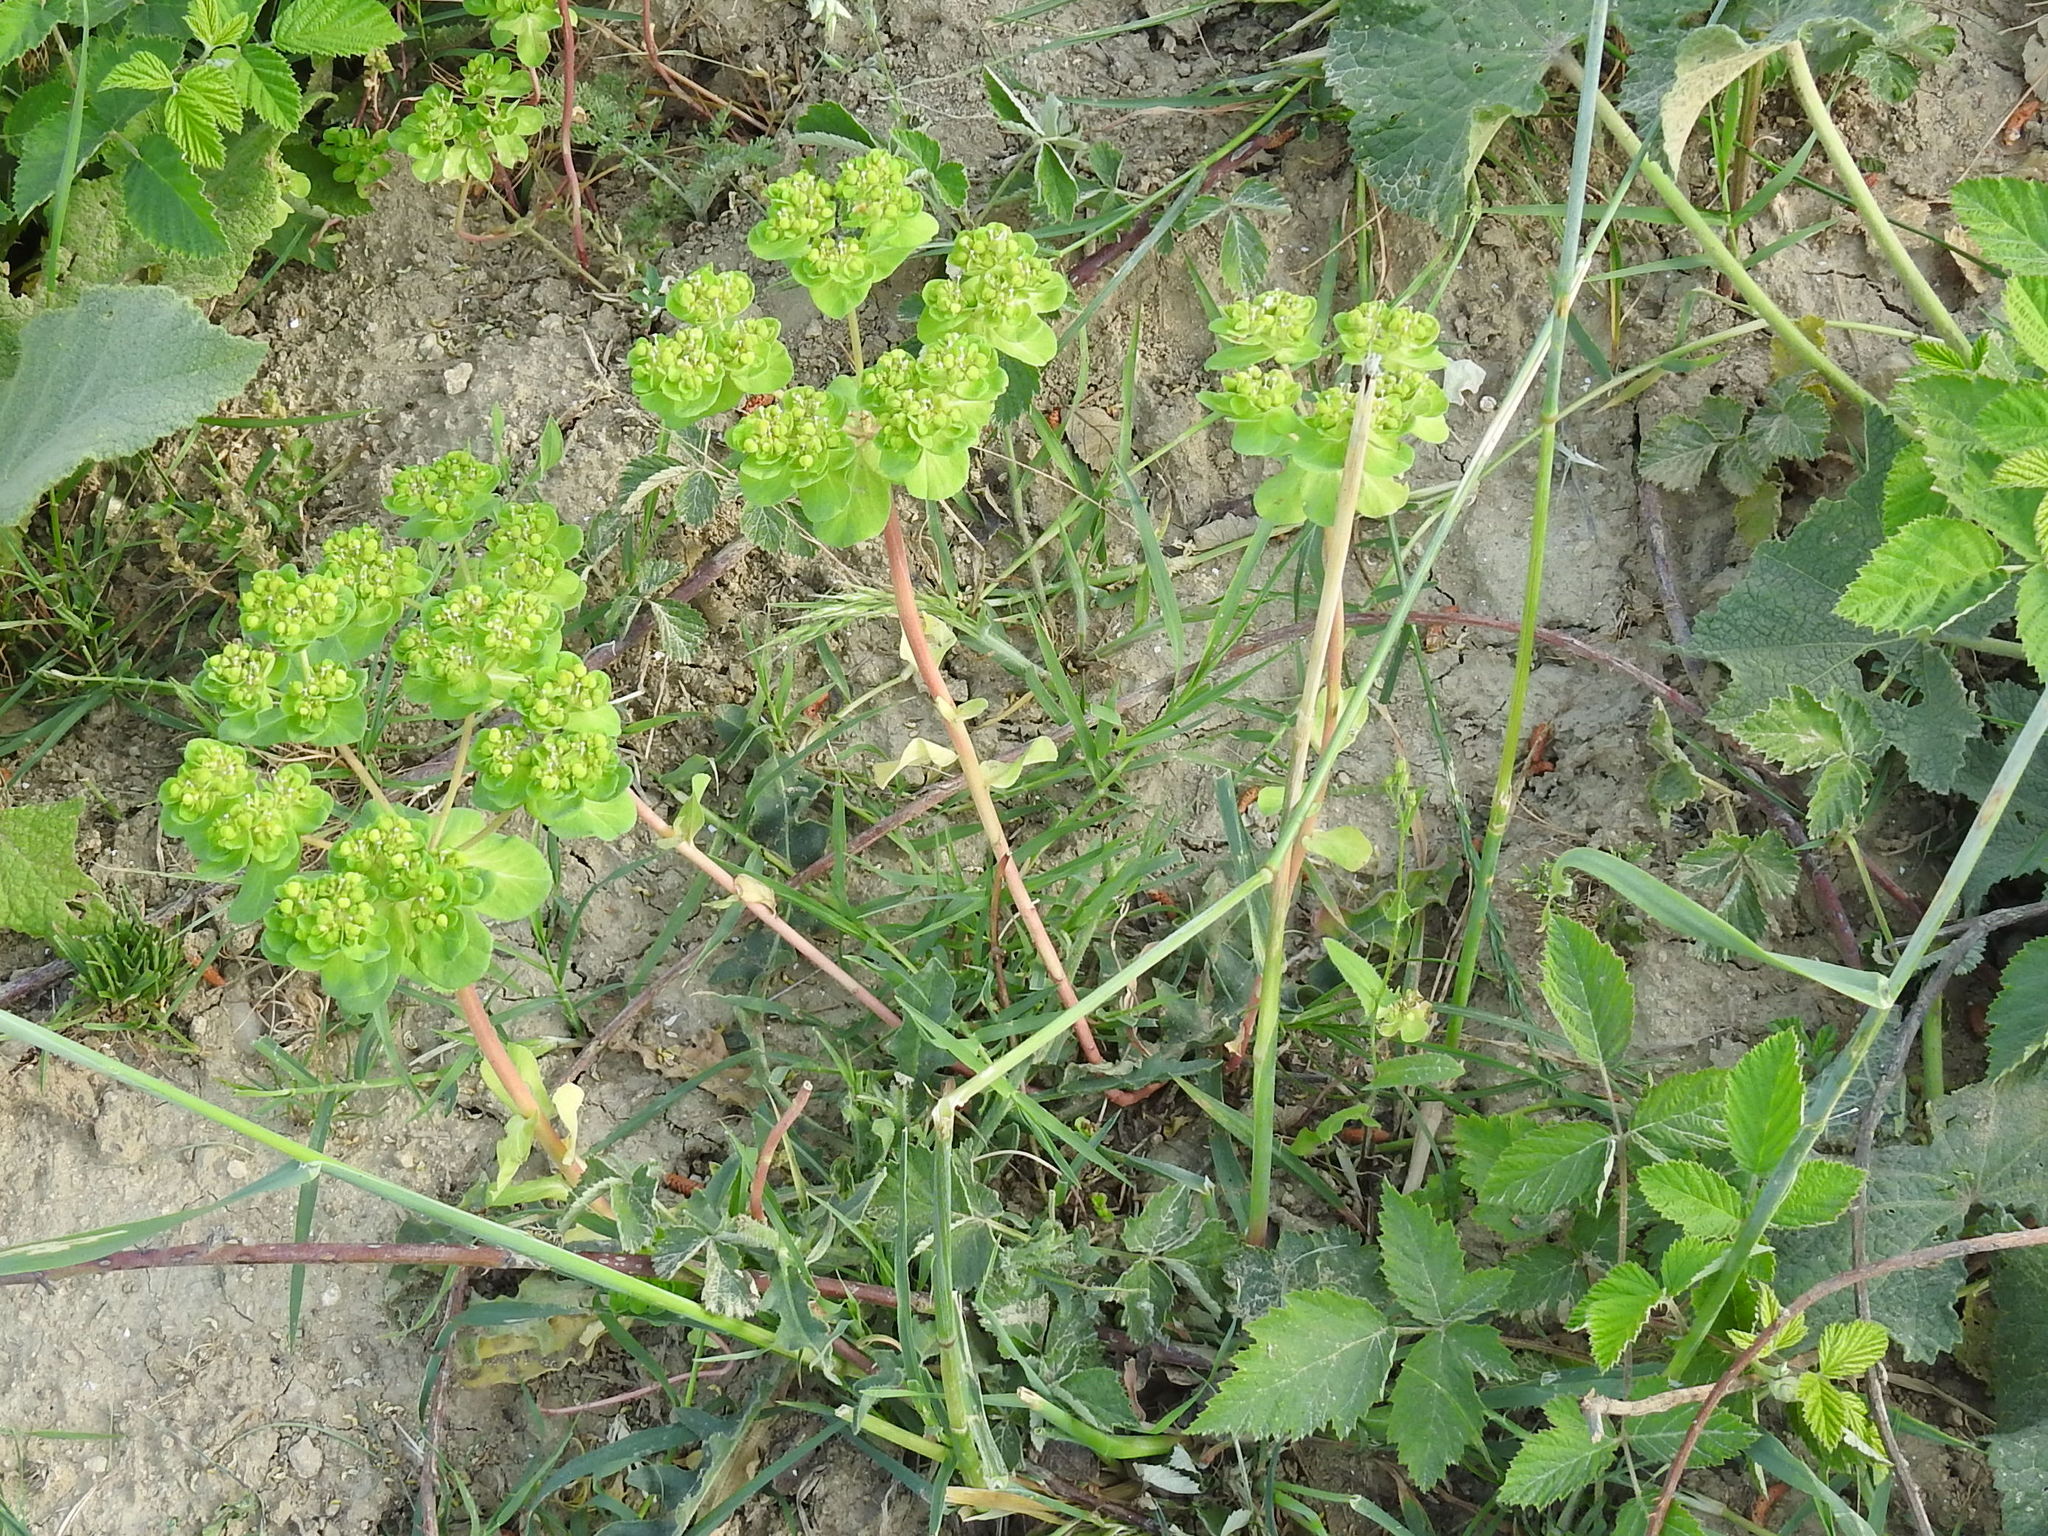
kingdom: Plantae
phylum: Tracheophyta
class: Magnoliopsida
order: Malpighiales
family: Euphorbiaceae
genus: Euphorbia
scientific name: Euphorbia helioscopia
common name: Sun spurge
